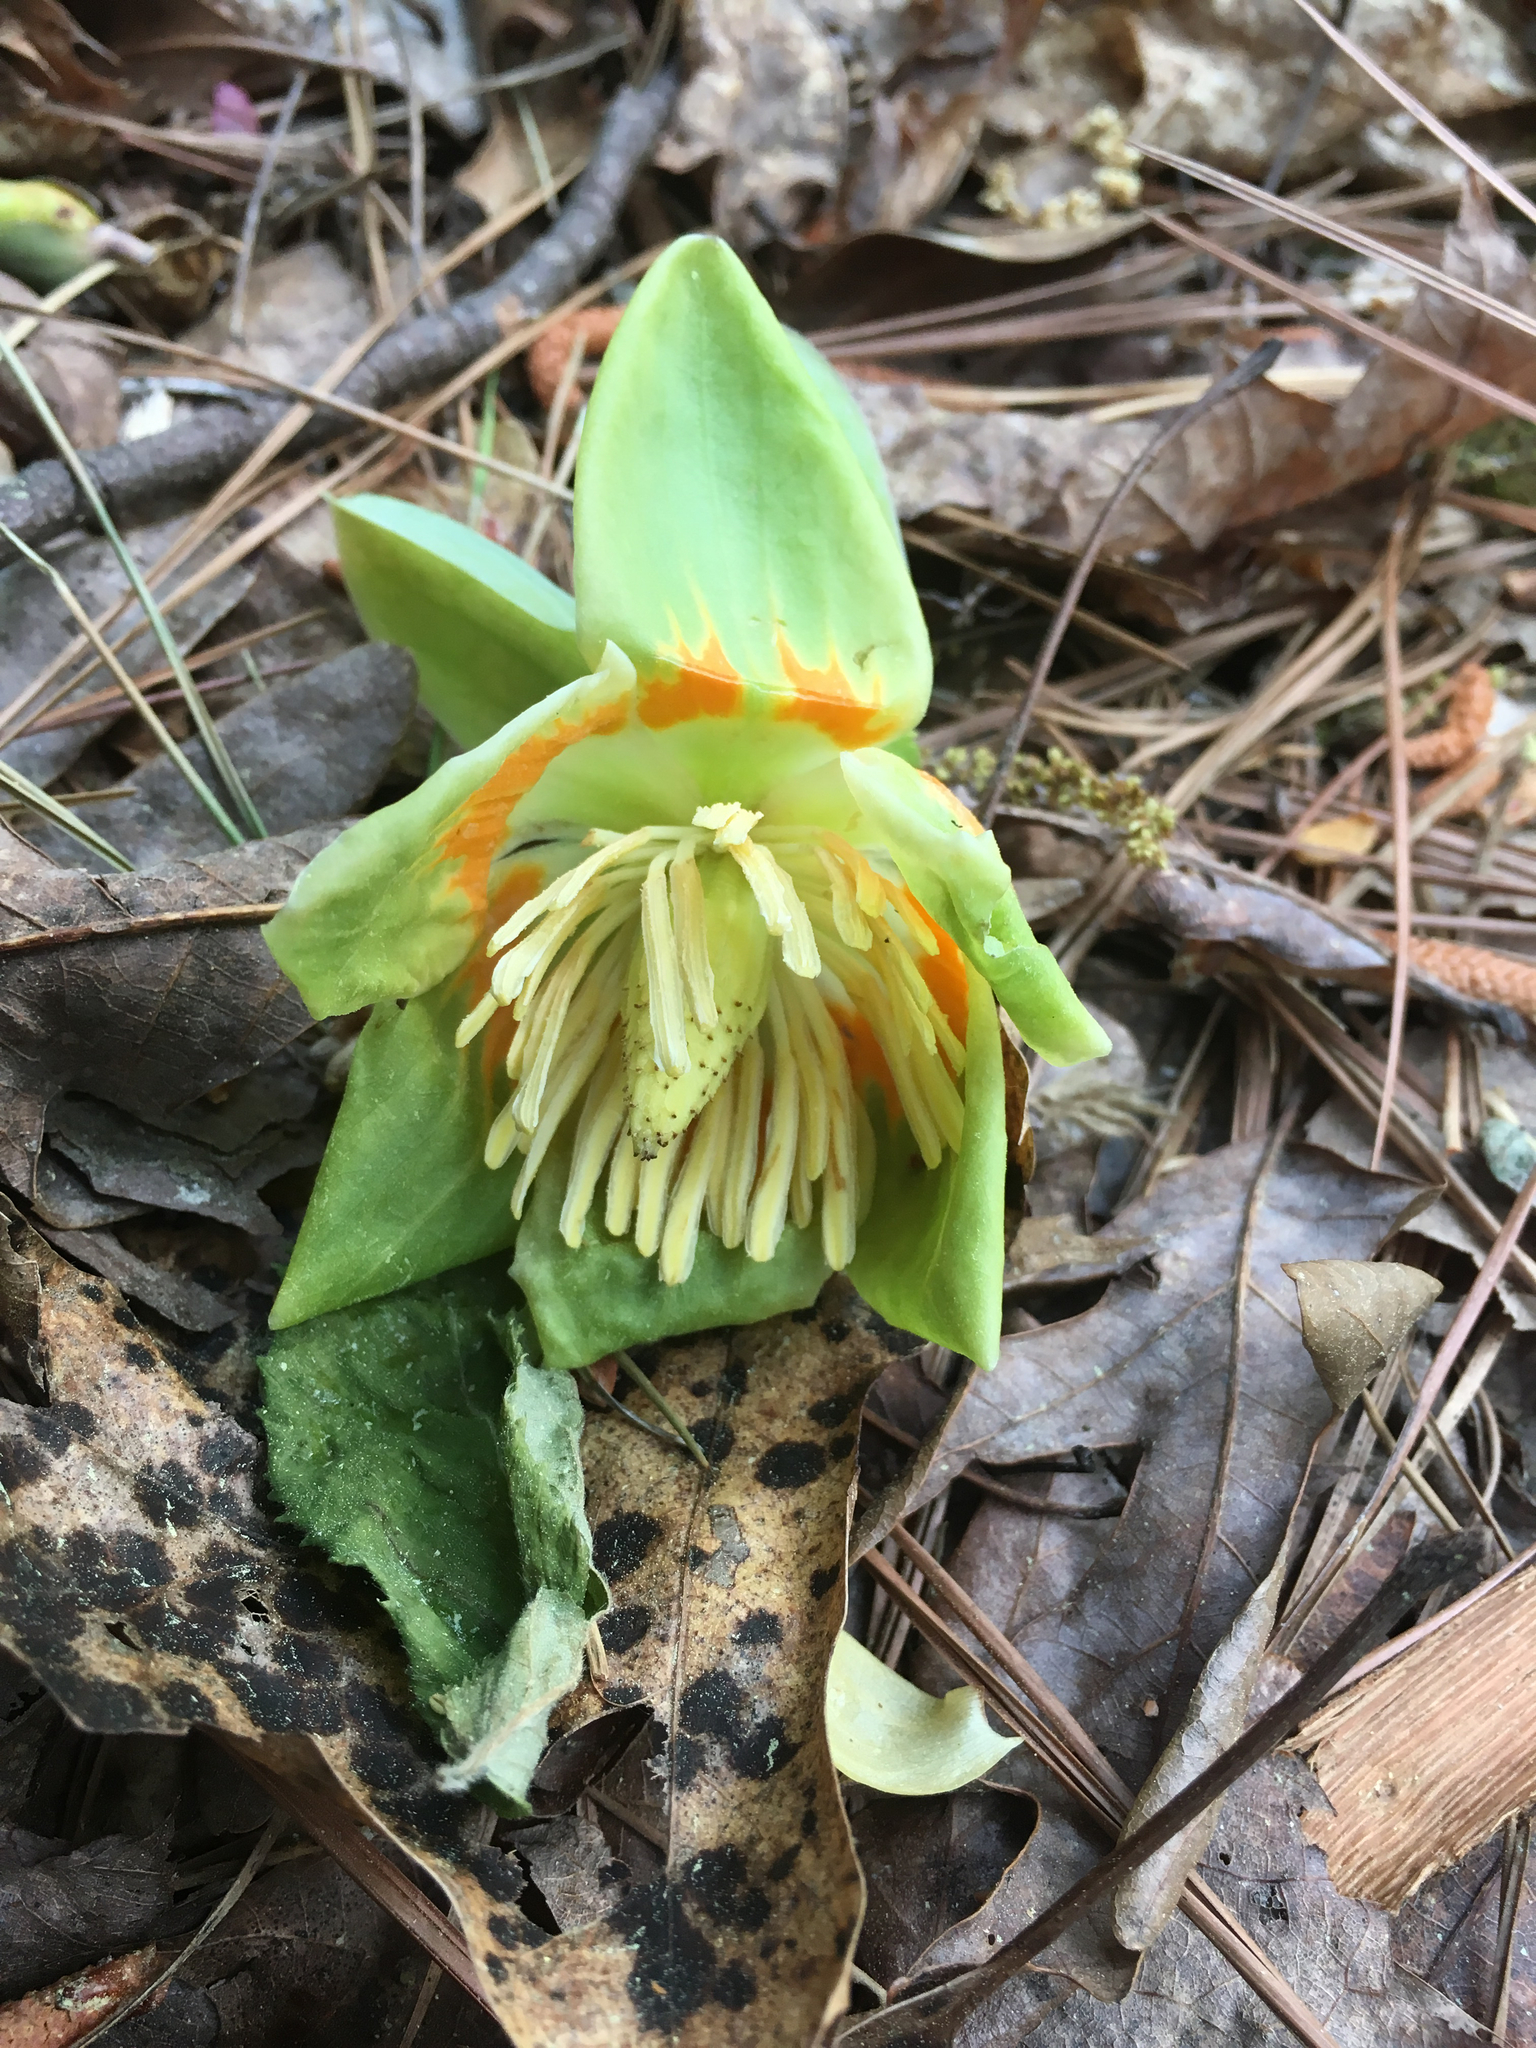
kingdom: Plantae
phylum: Tracheophyta
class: Magnoliopsida
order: Magnoliales
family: Magnoliaceae
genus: Liriodendron
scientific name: Liriodendron tulipifera
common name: Tulip tree
